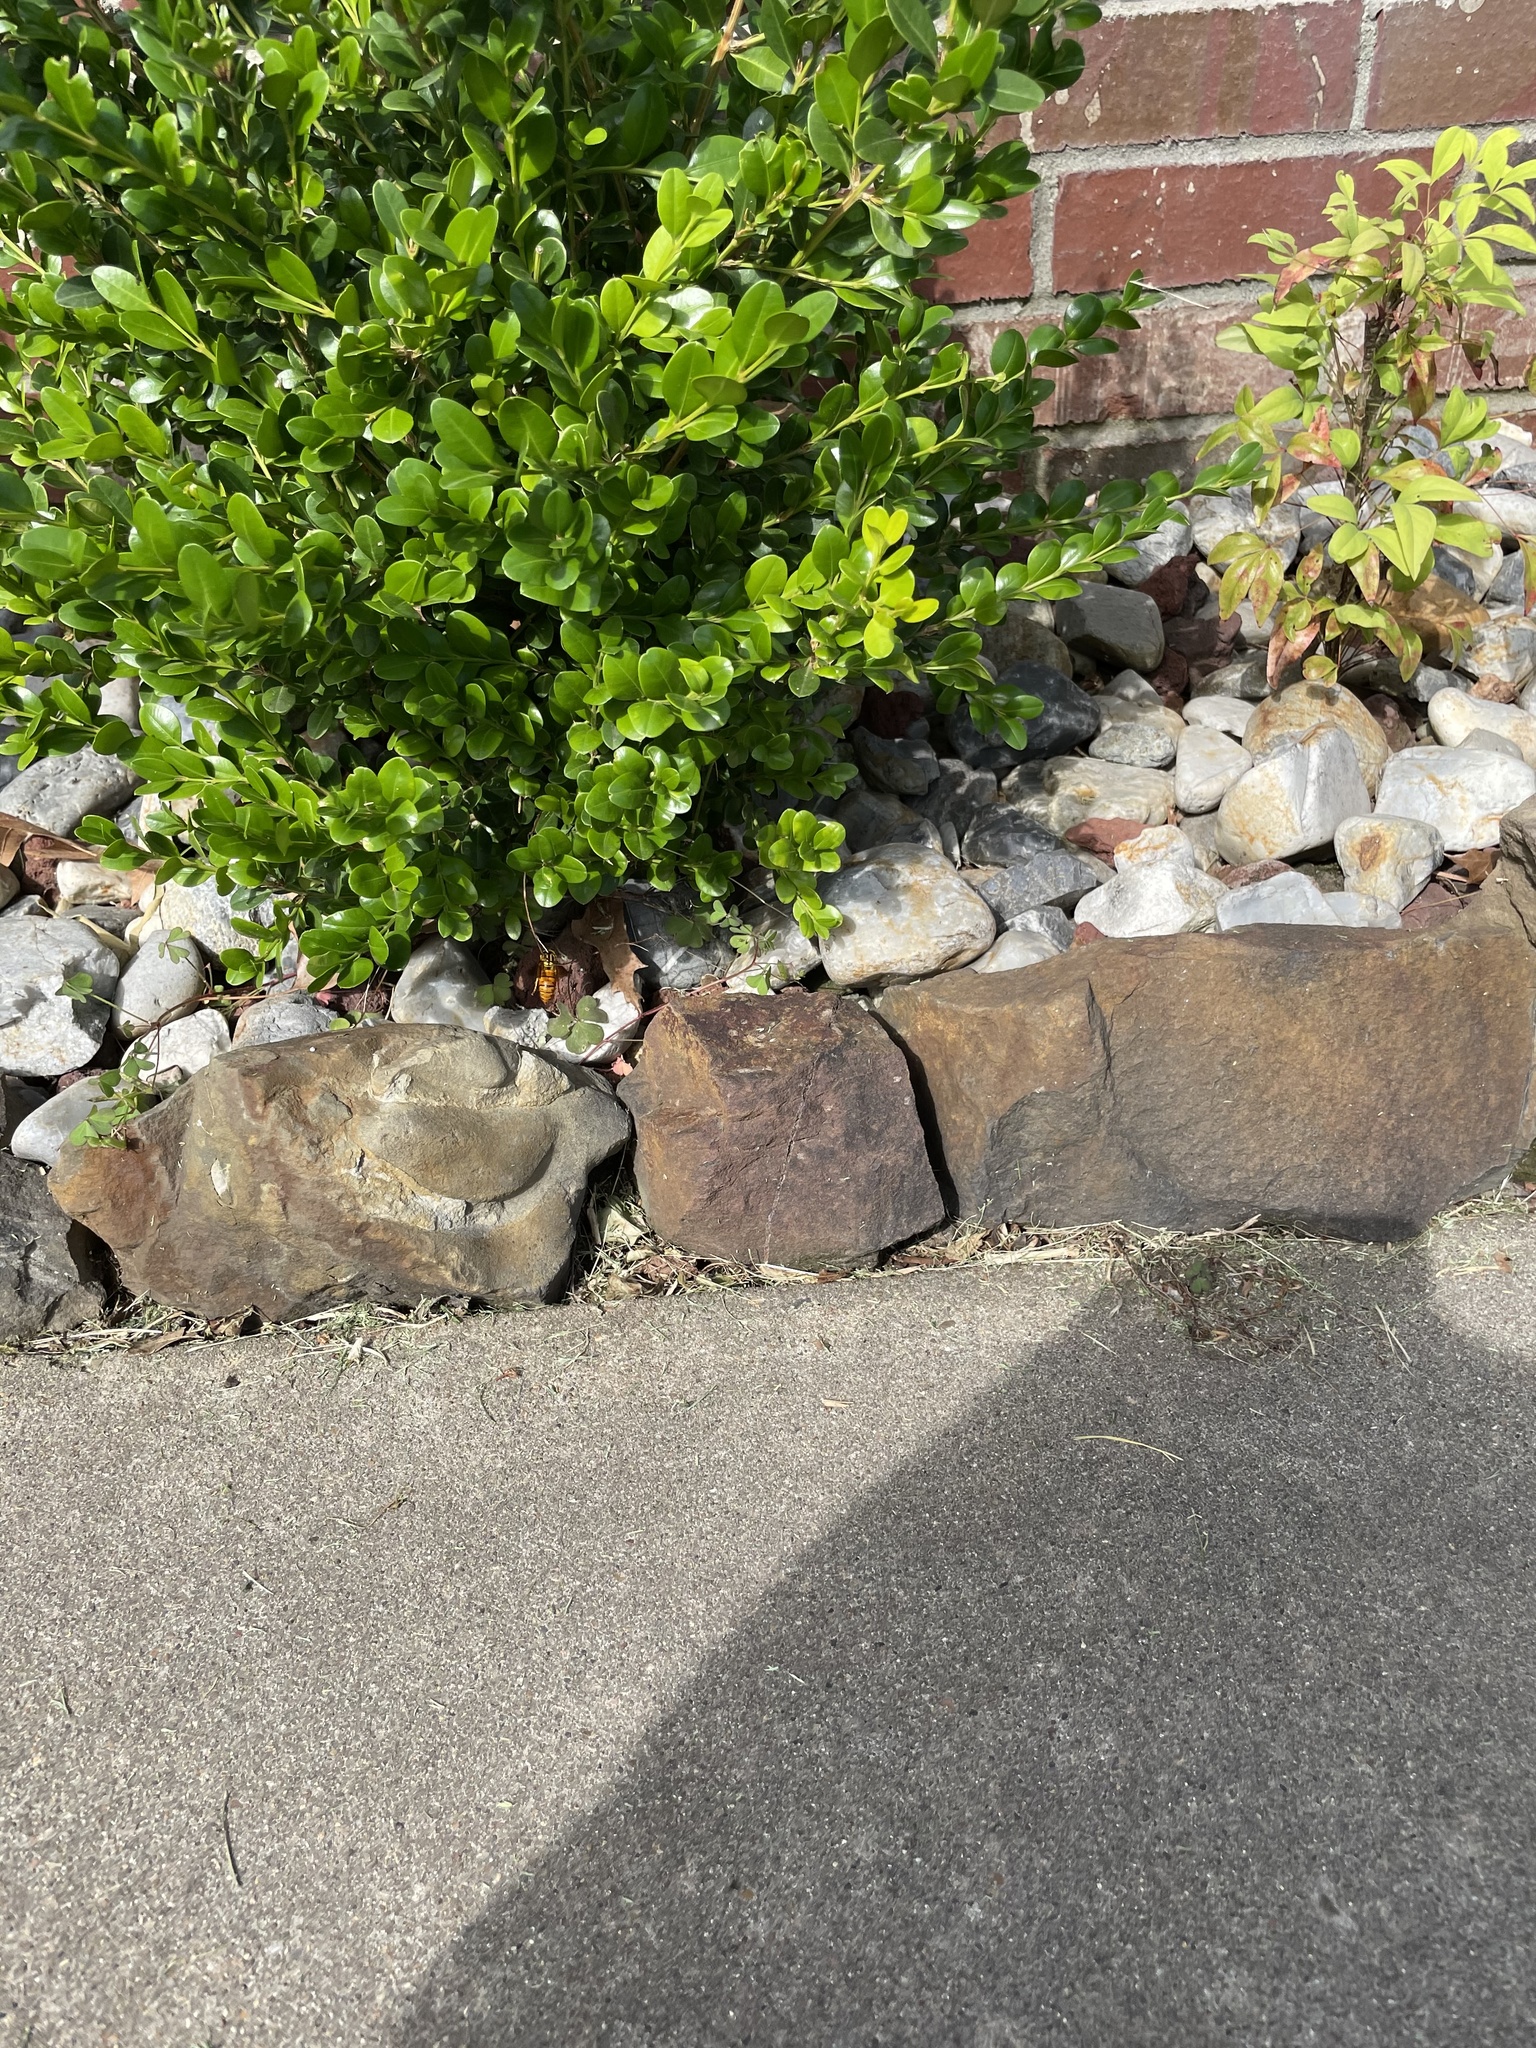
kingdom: Animalia
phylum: Arthropoda
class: Insecta
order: Hymenoptera
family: Vespidae
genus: Vespula
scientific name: Vespula squamosa
